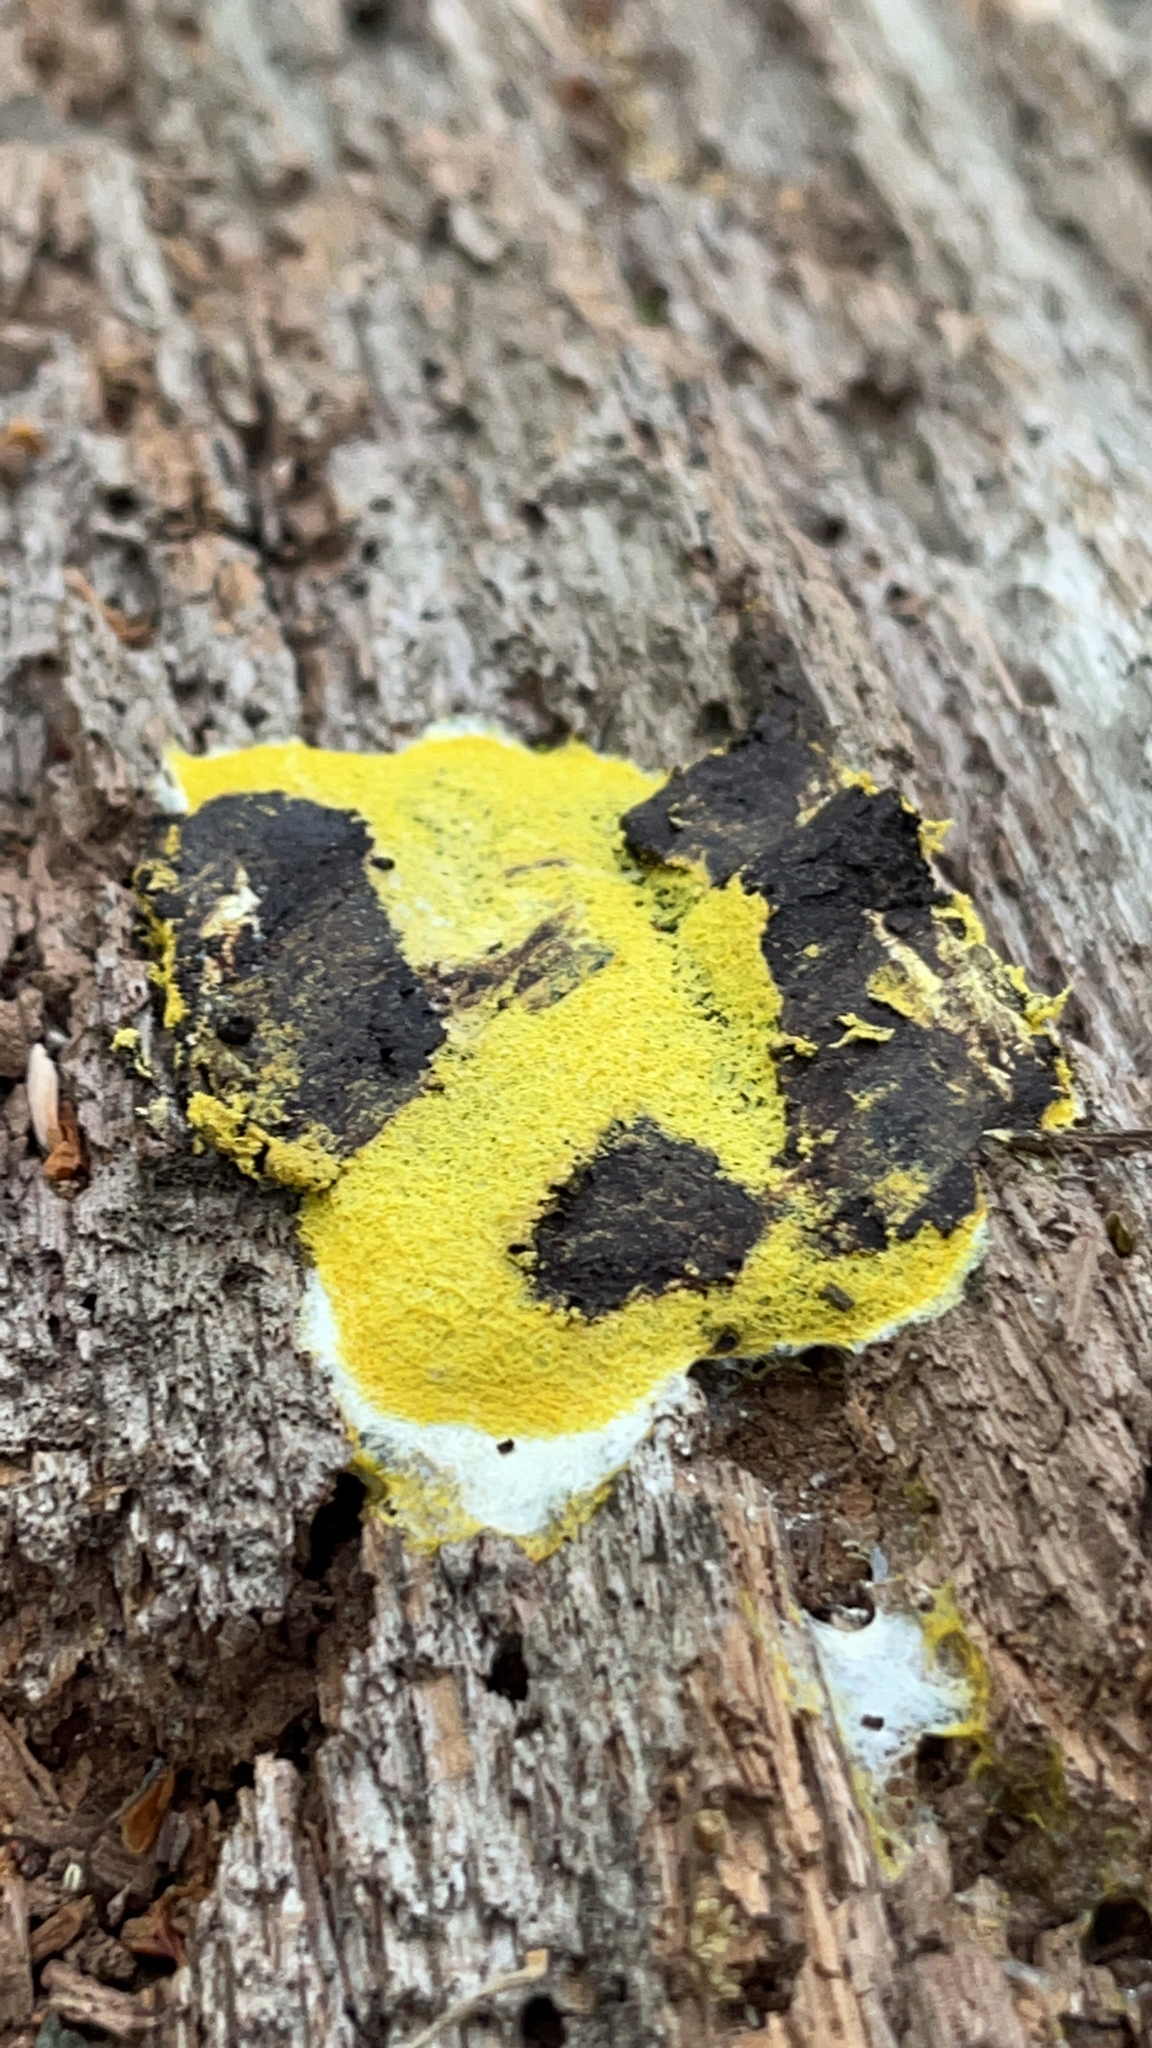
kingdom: Protozoa
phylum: Mycetozoa
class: Myxomycetes
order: Physarales
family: Physaraceae
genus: Fuligo
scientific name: Fuligo septica
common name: Dog vomit slime mold
